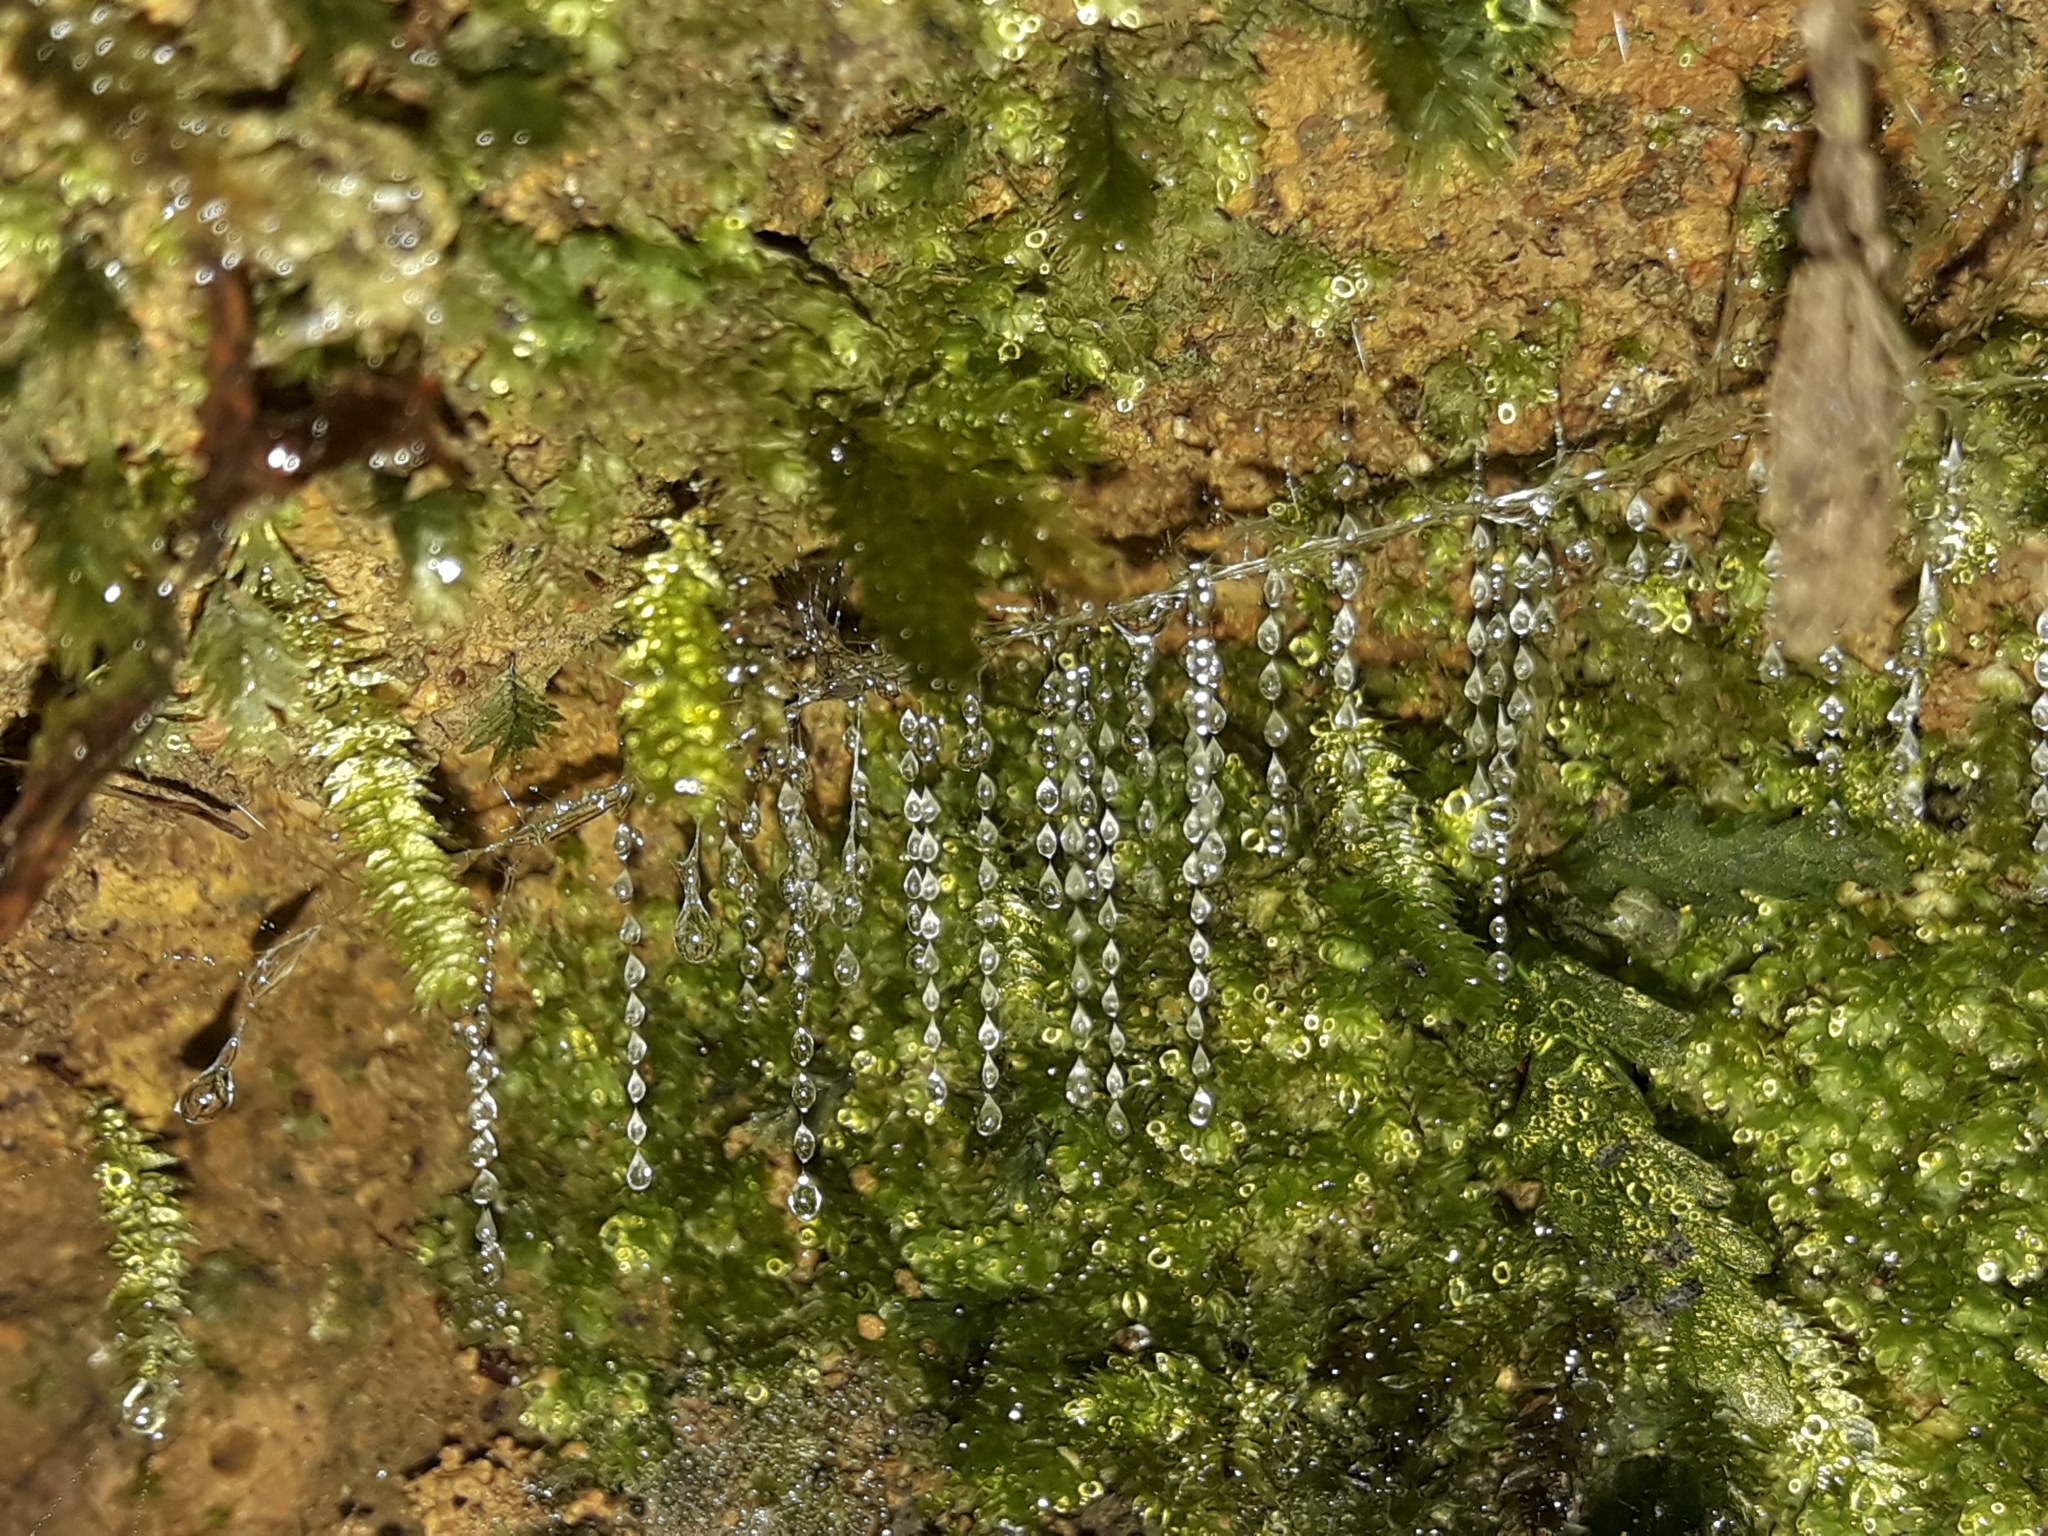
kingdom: Animalia
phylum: Arthropoda
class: Insecta
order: Diptera
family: Keroplatidae
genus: Arachnocampa
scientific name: Arachnocampa luminosa
